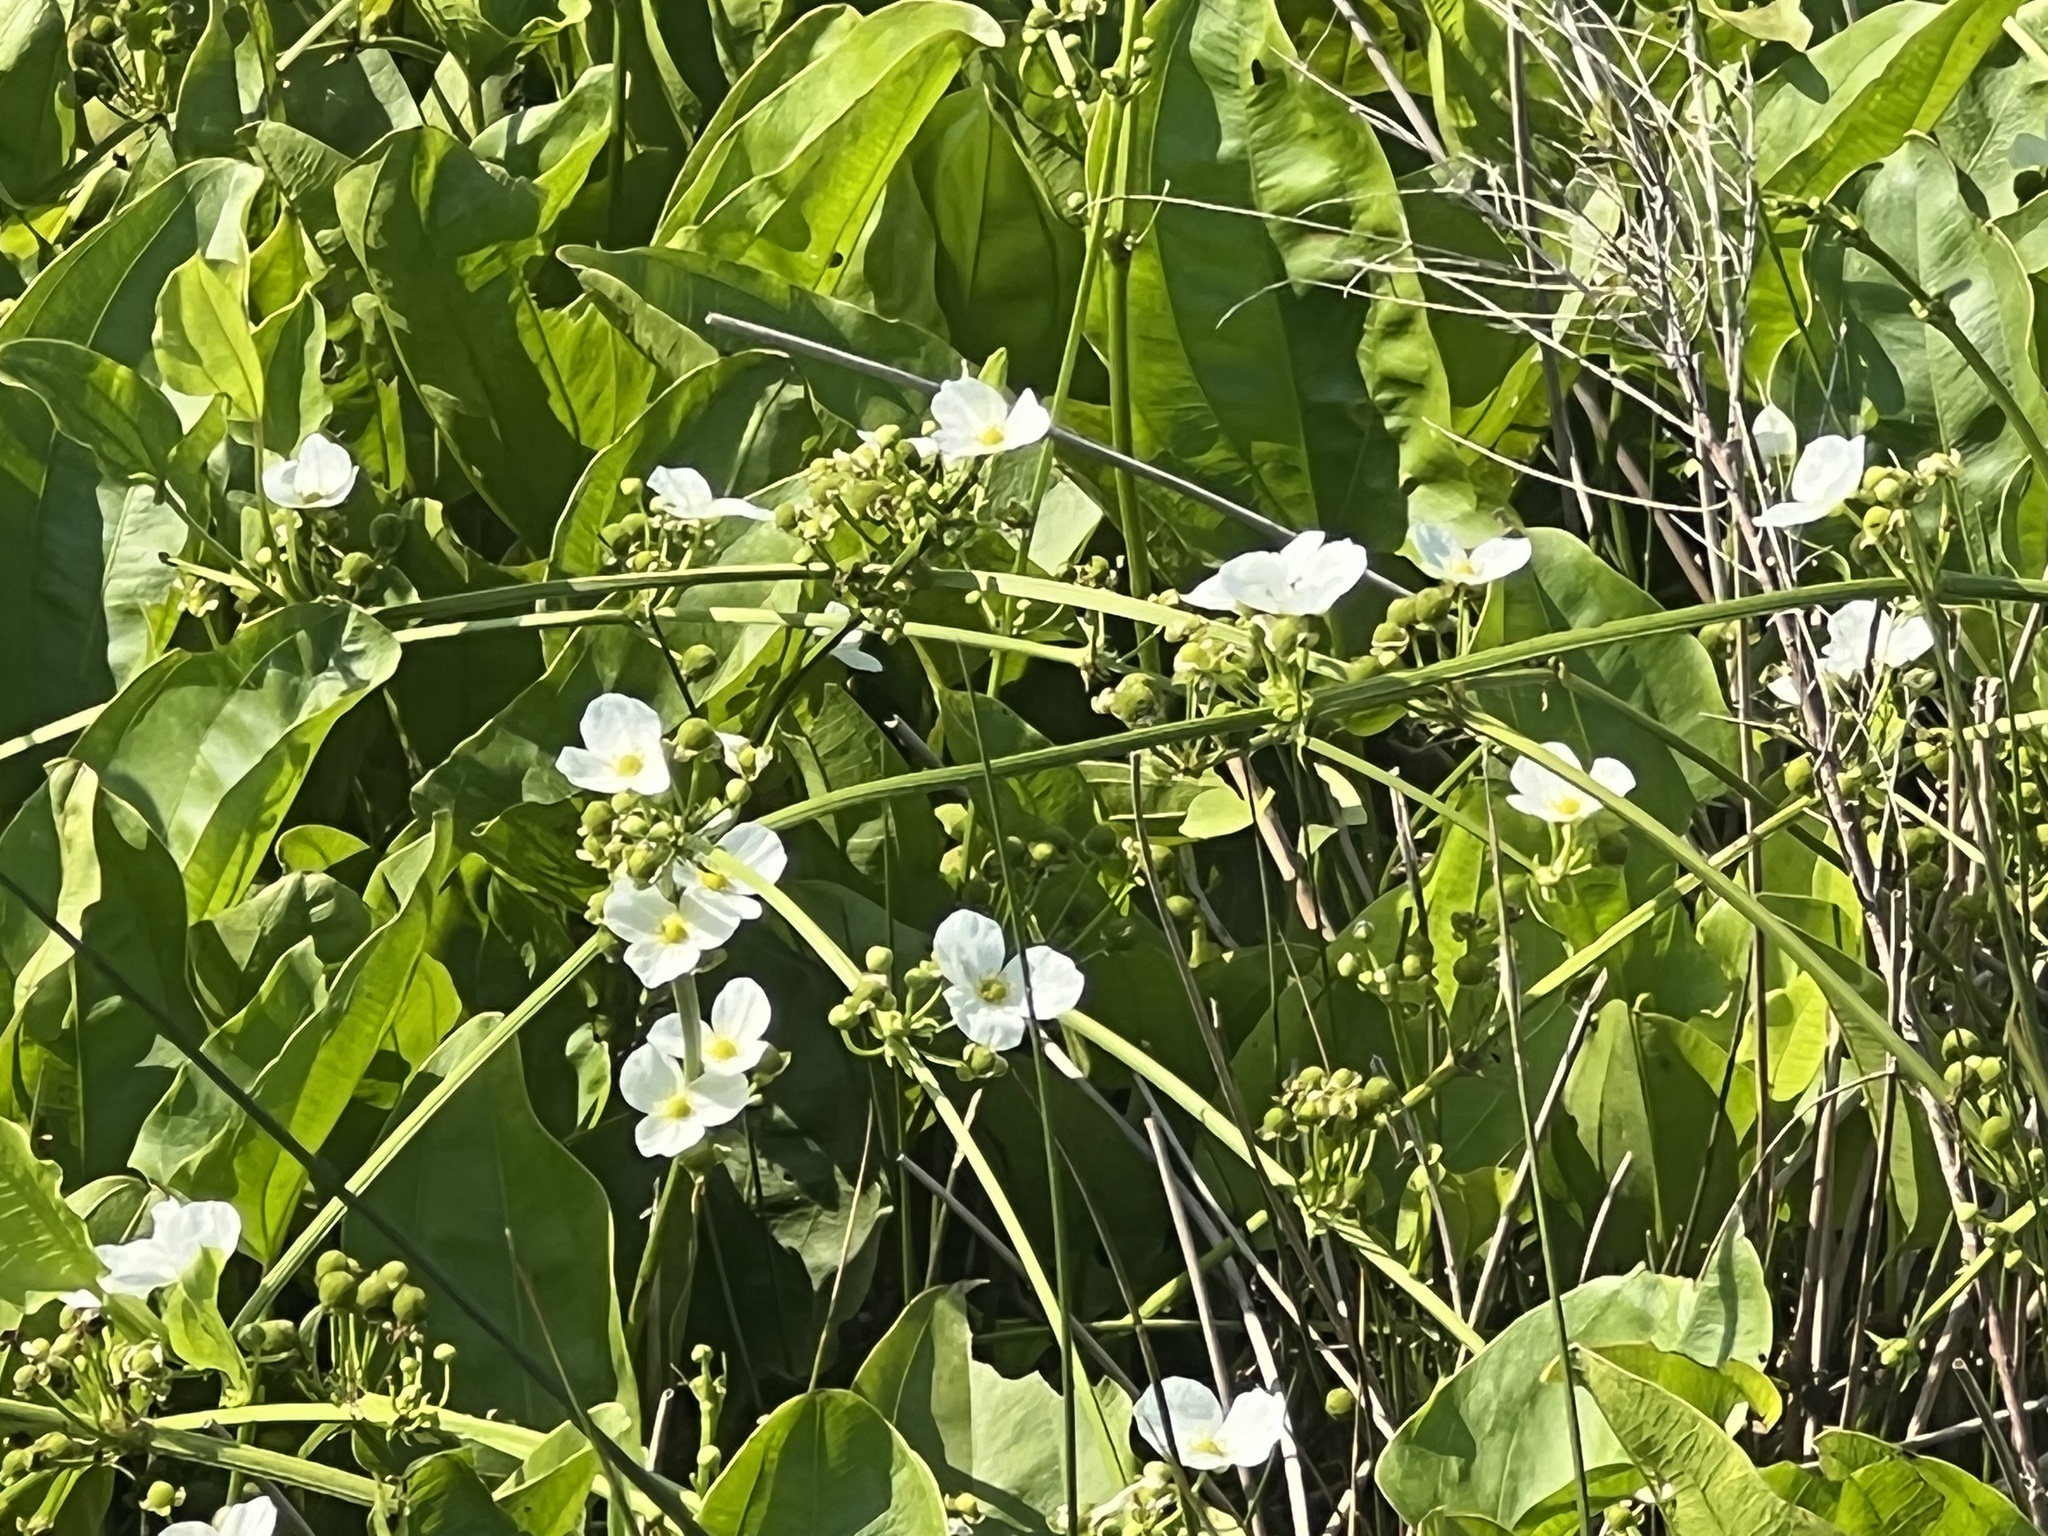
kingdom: Plantae
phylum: Tracheophyta
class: Liliopsida
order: Alismatales
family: Alismataceae
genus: Aquarius
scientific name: Aquarius cordifolius
